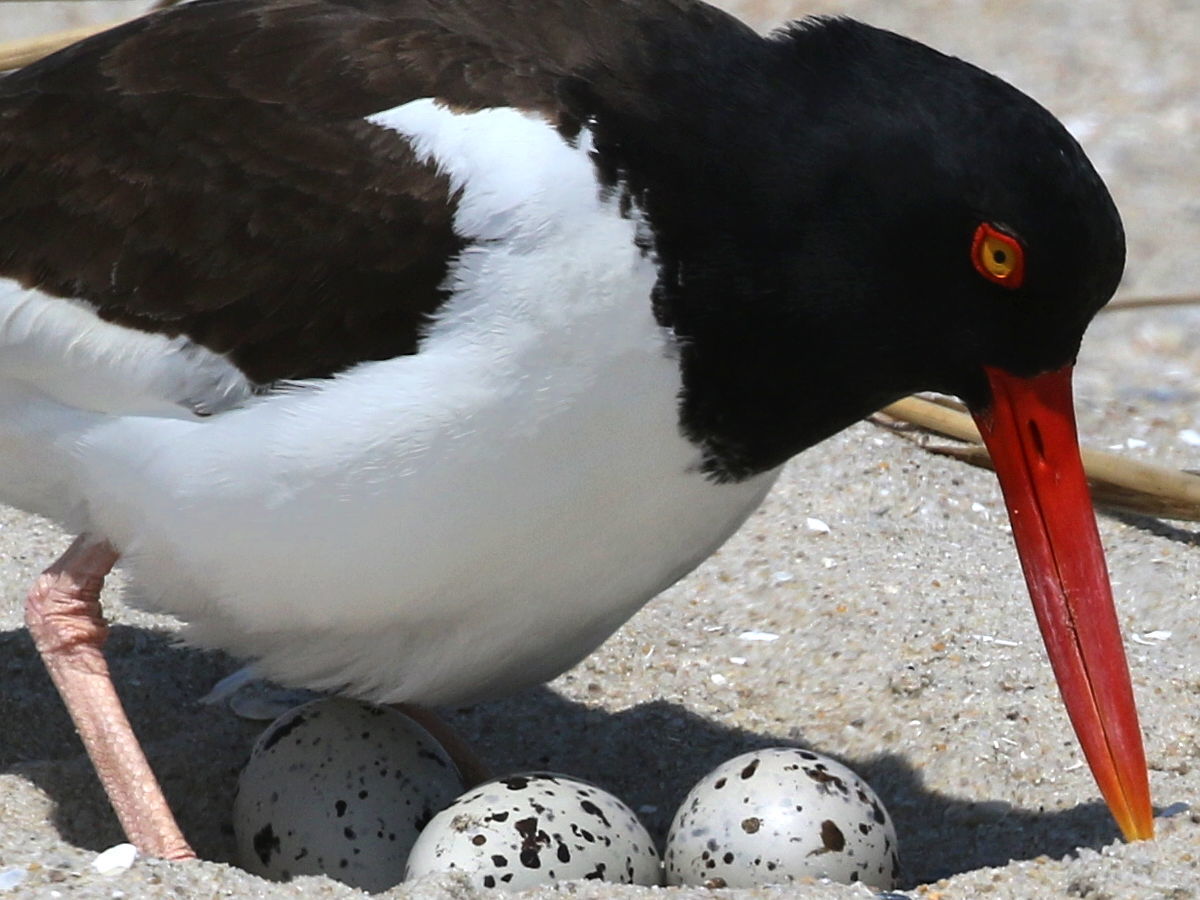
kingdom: Animalia
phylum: Chordata
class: Aves
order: Charadriiformes
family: Haematopodidae
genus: Haematopus
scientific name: Haematopus palliatus
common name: American oystercatcher
